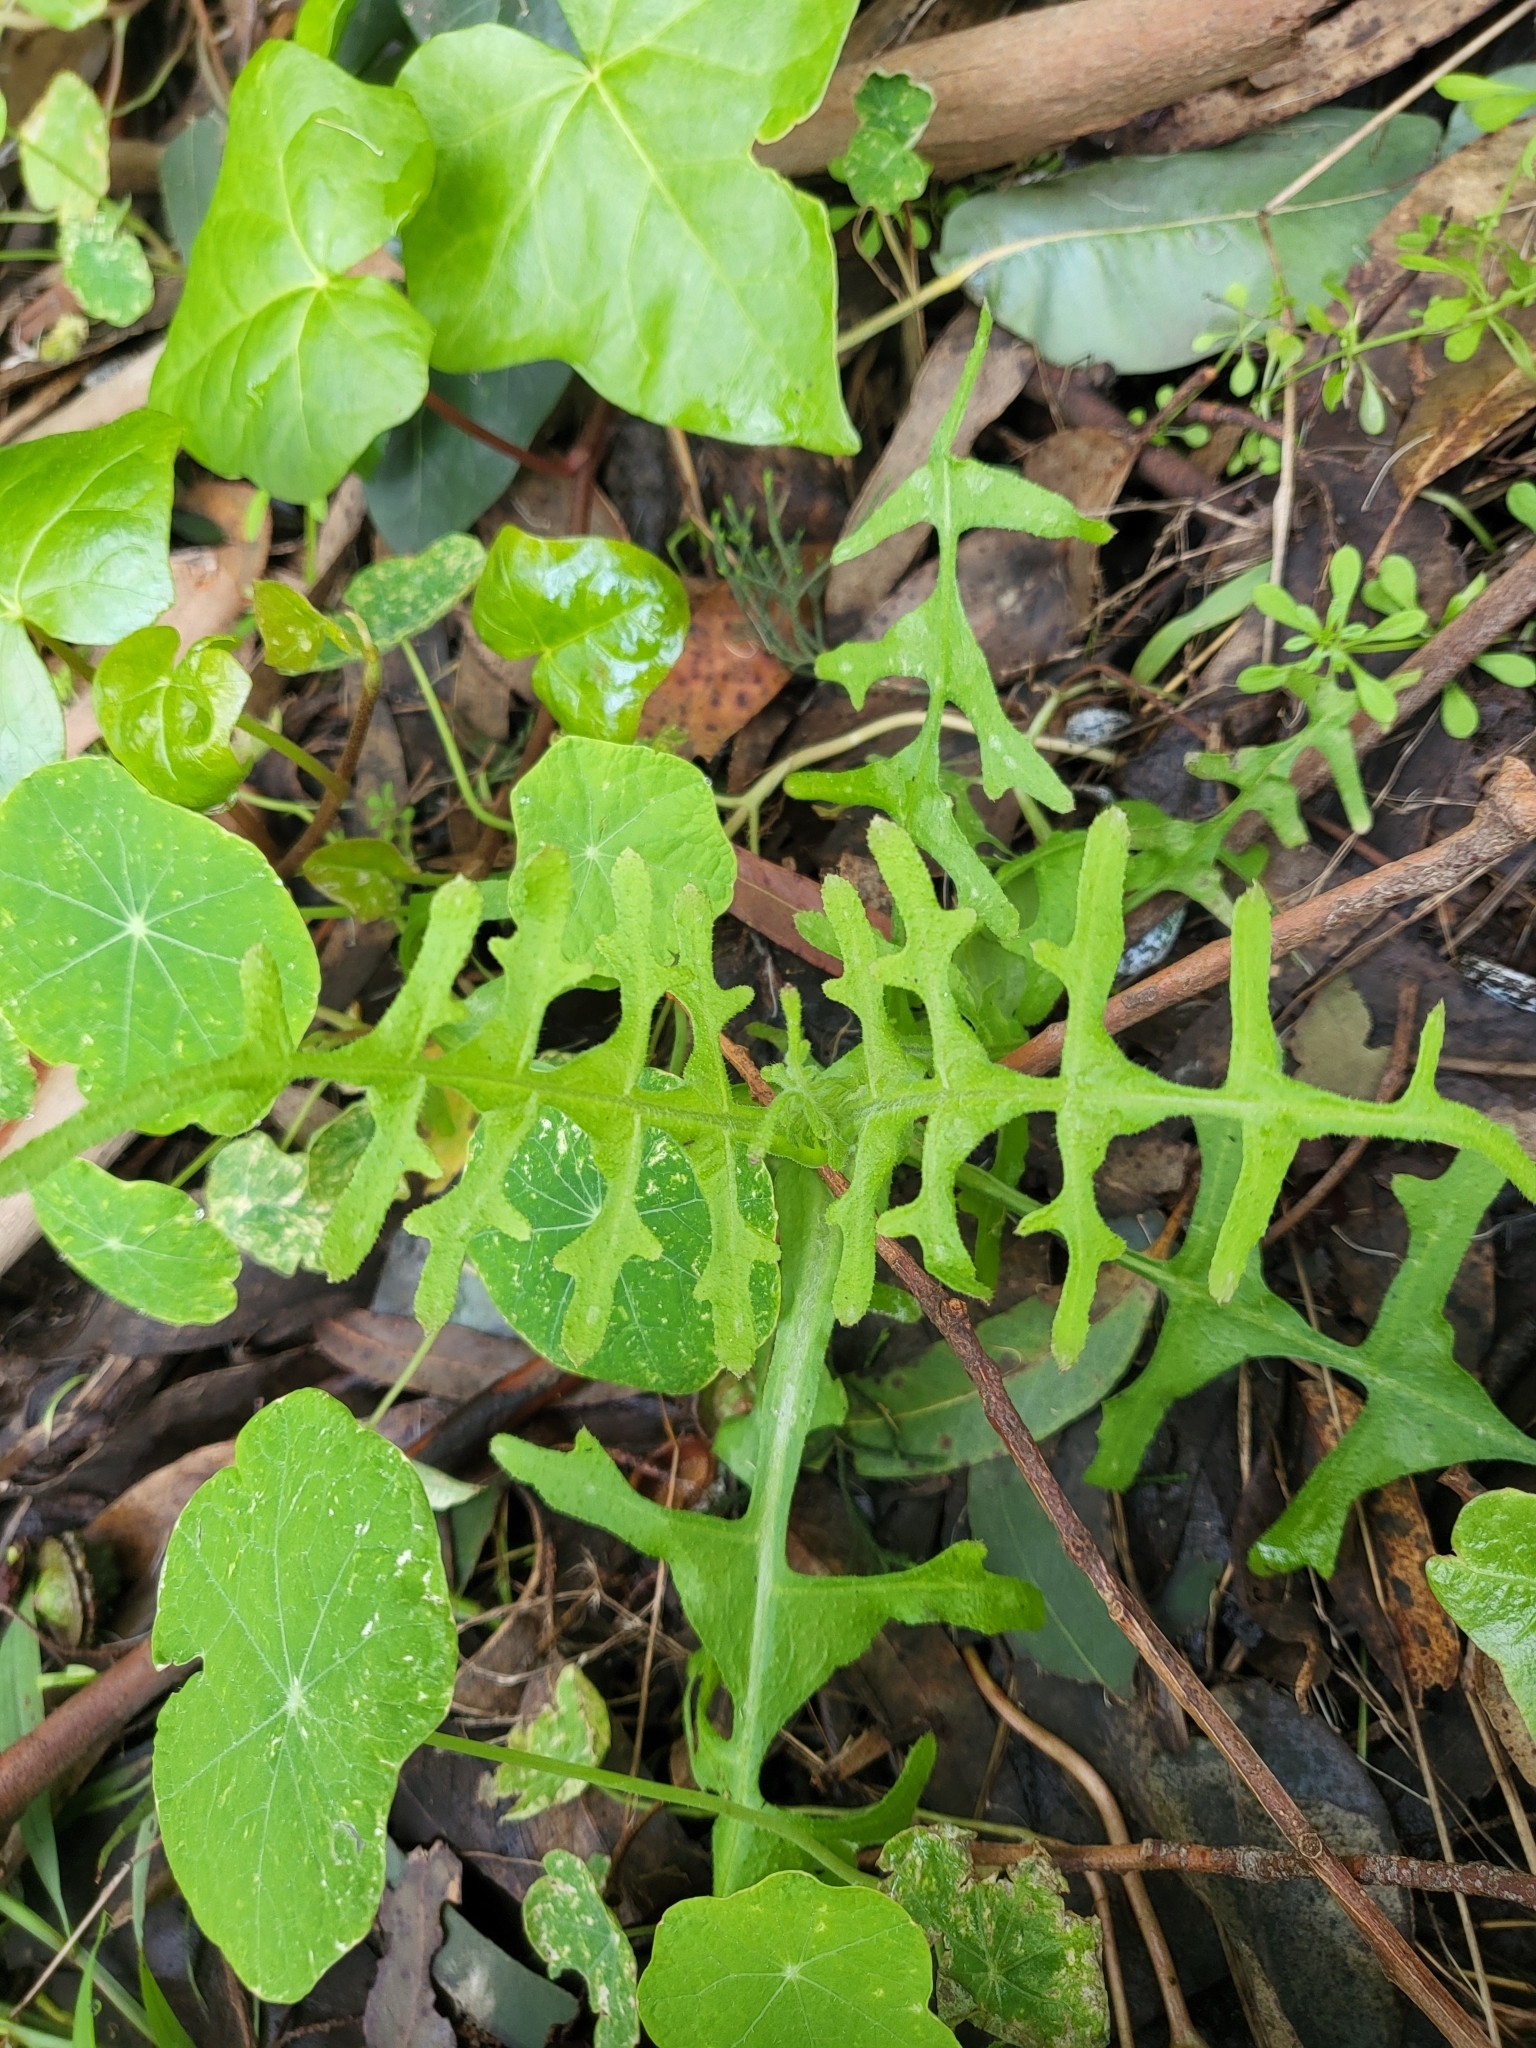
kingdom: Plantae
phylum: Tracheophyta
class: Magnoliopsida
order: Boraginales
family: Hydrophyllaceae
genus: Pholistoma
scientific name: Pholistoma auritum
